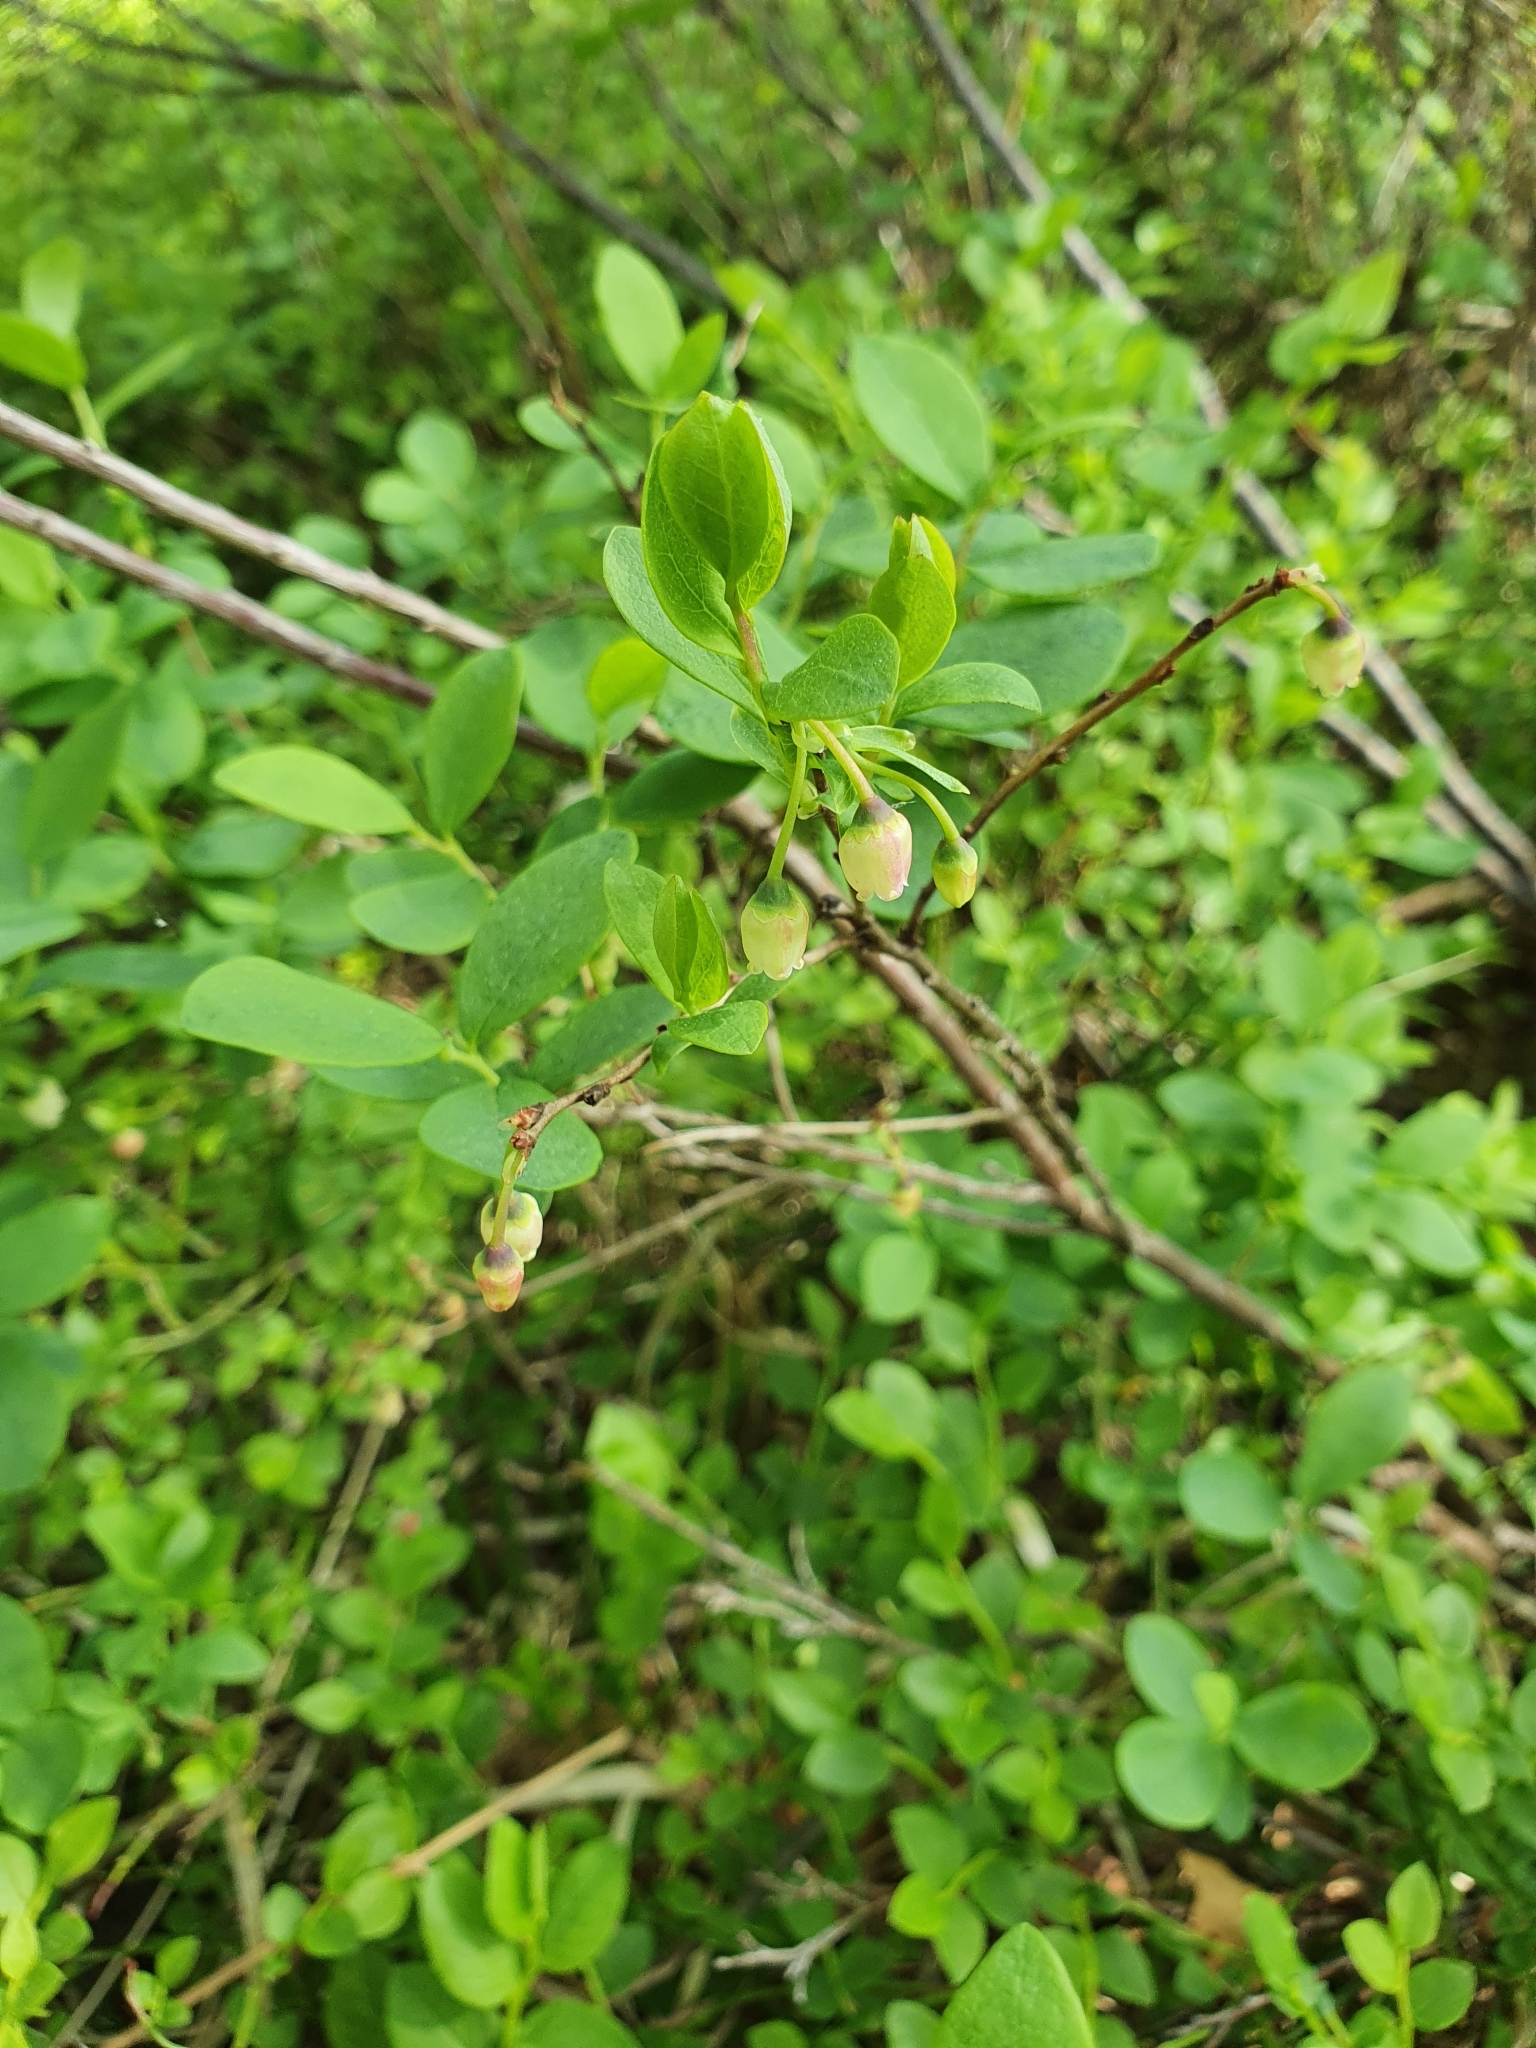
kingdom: Plantae
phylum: Tracheophyta
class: Magnoliopsida
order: Ericales
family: Ericaceae
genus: Vaccinium
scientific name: Vaccinium uliginosum
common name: Bog bilberry
